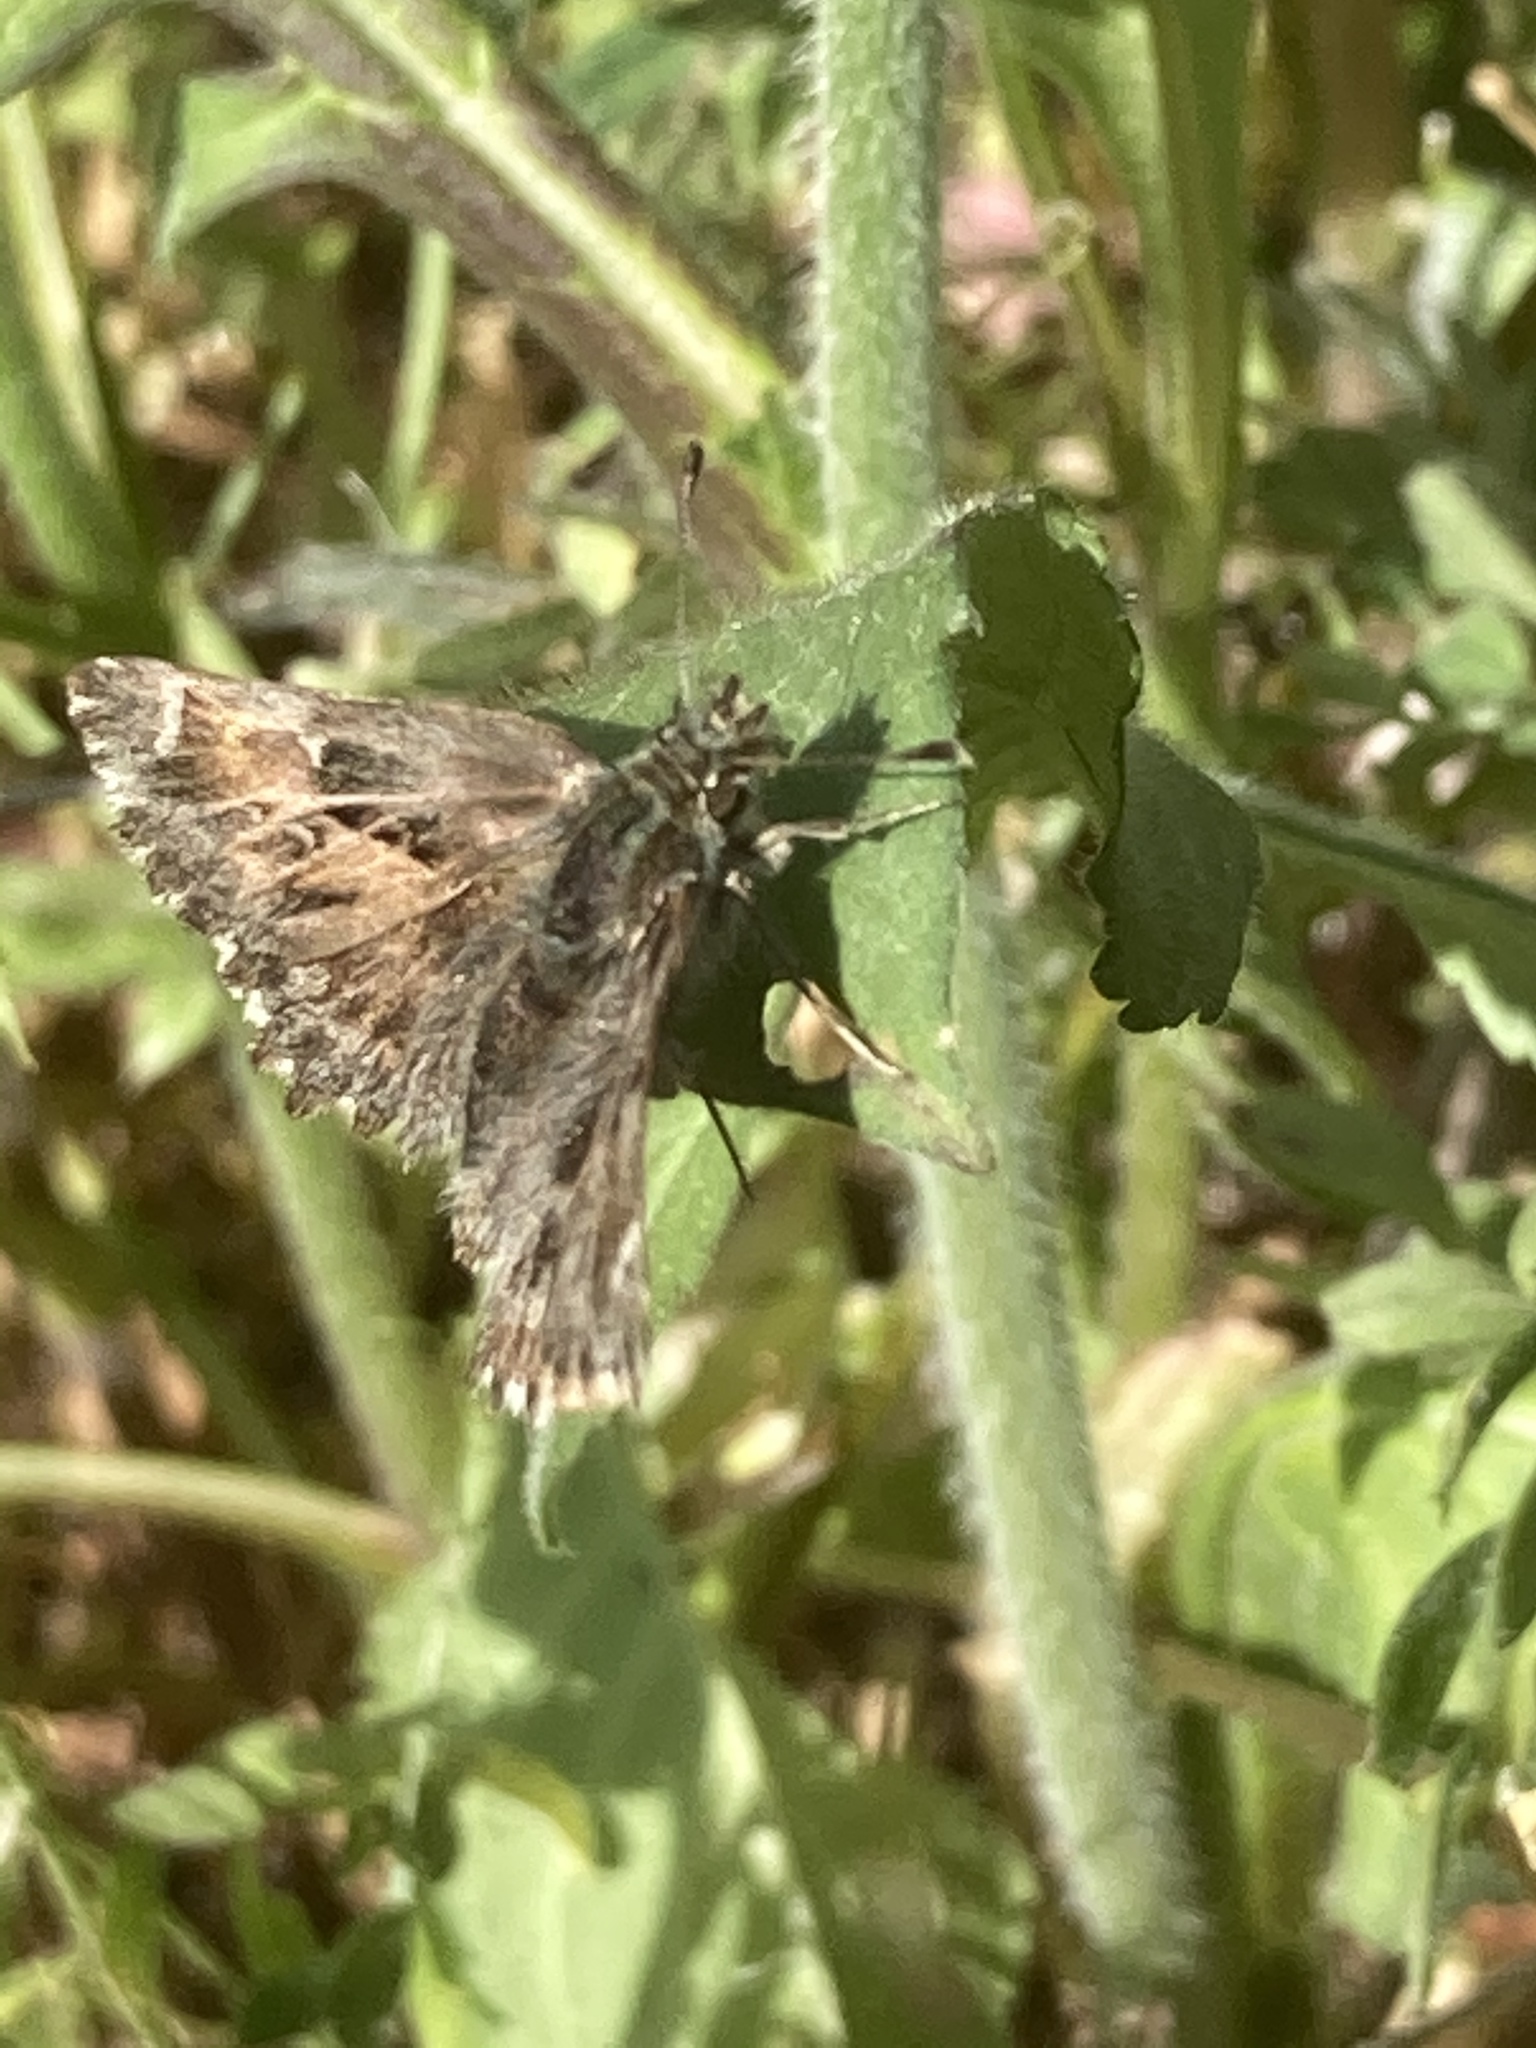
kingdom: Animalia
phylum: Arthropoda
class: Insecta
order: Lepidoptera
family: Hesperiidae
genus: Carcharodus
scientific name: Carcharodus alceae
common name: Mallow skipper
